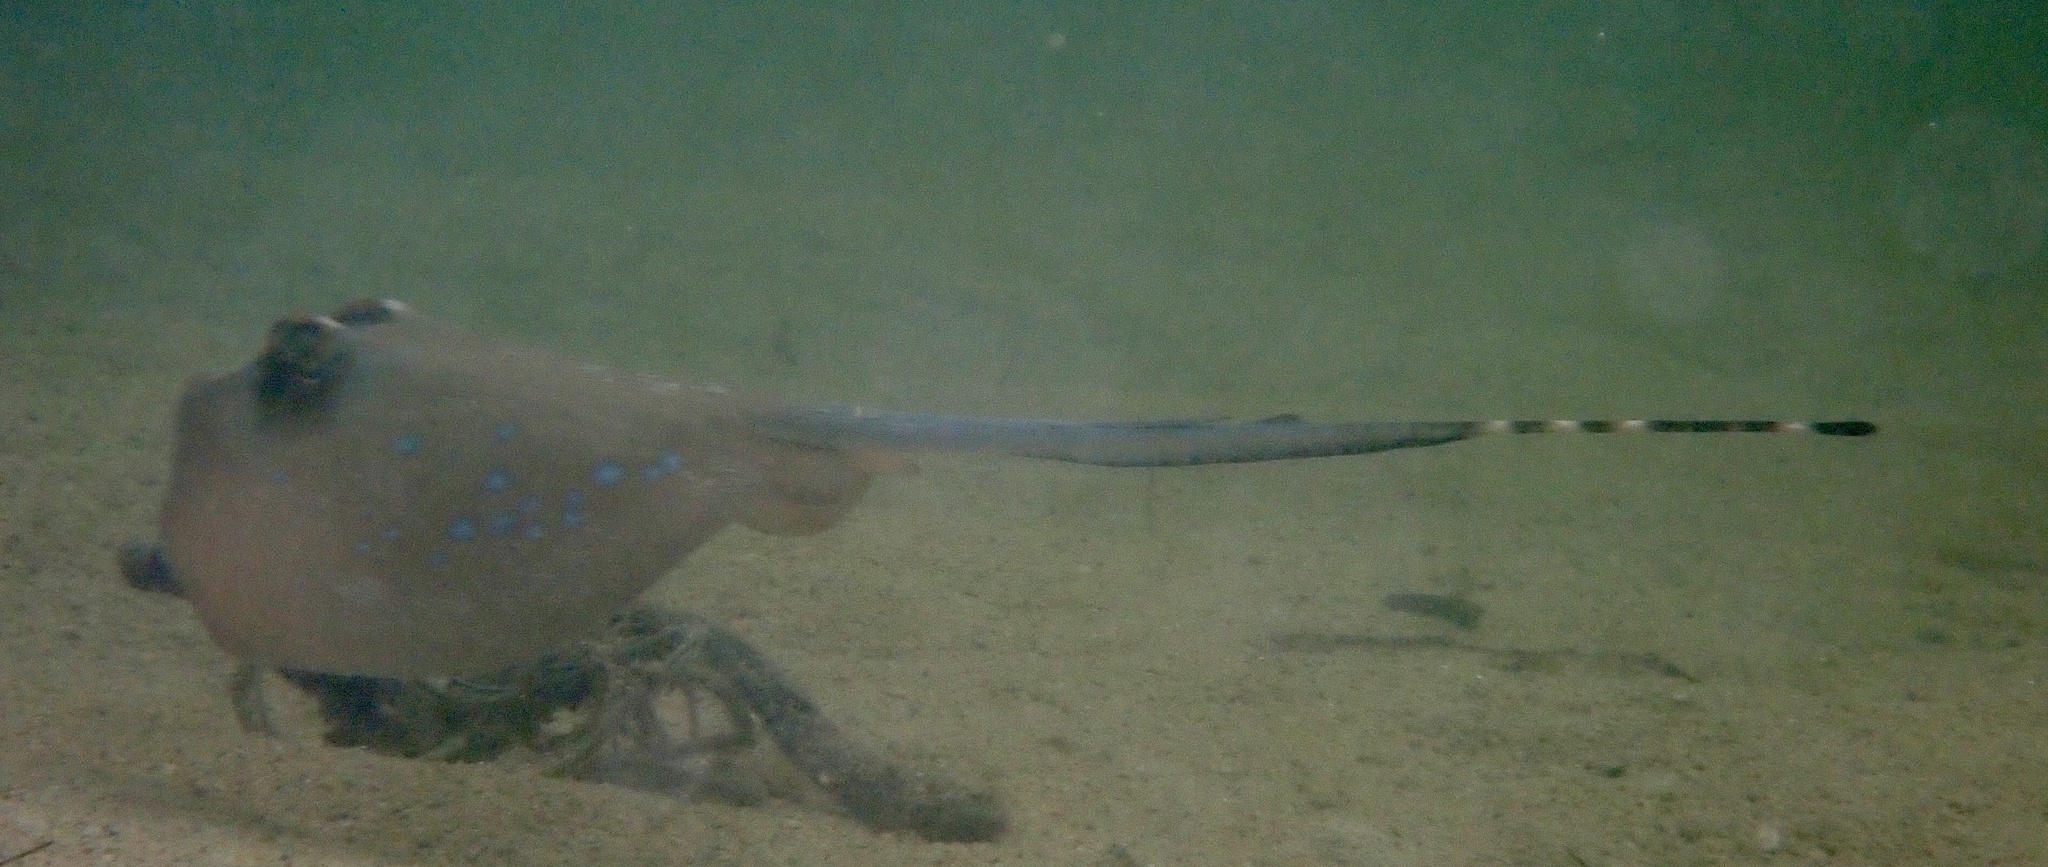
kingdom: Animalia
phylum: Chordata
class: Elasmobranchii
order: Myliobatiformes
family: Dasyatidae
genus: Neotrygon
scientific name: Neotrygon orientale
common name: Oriental bluespotted maskray
